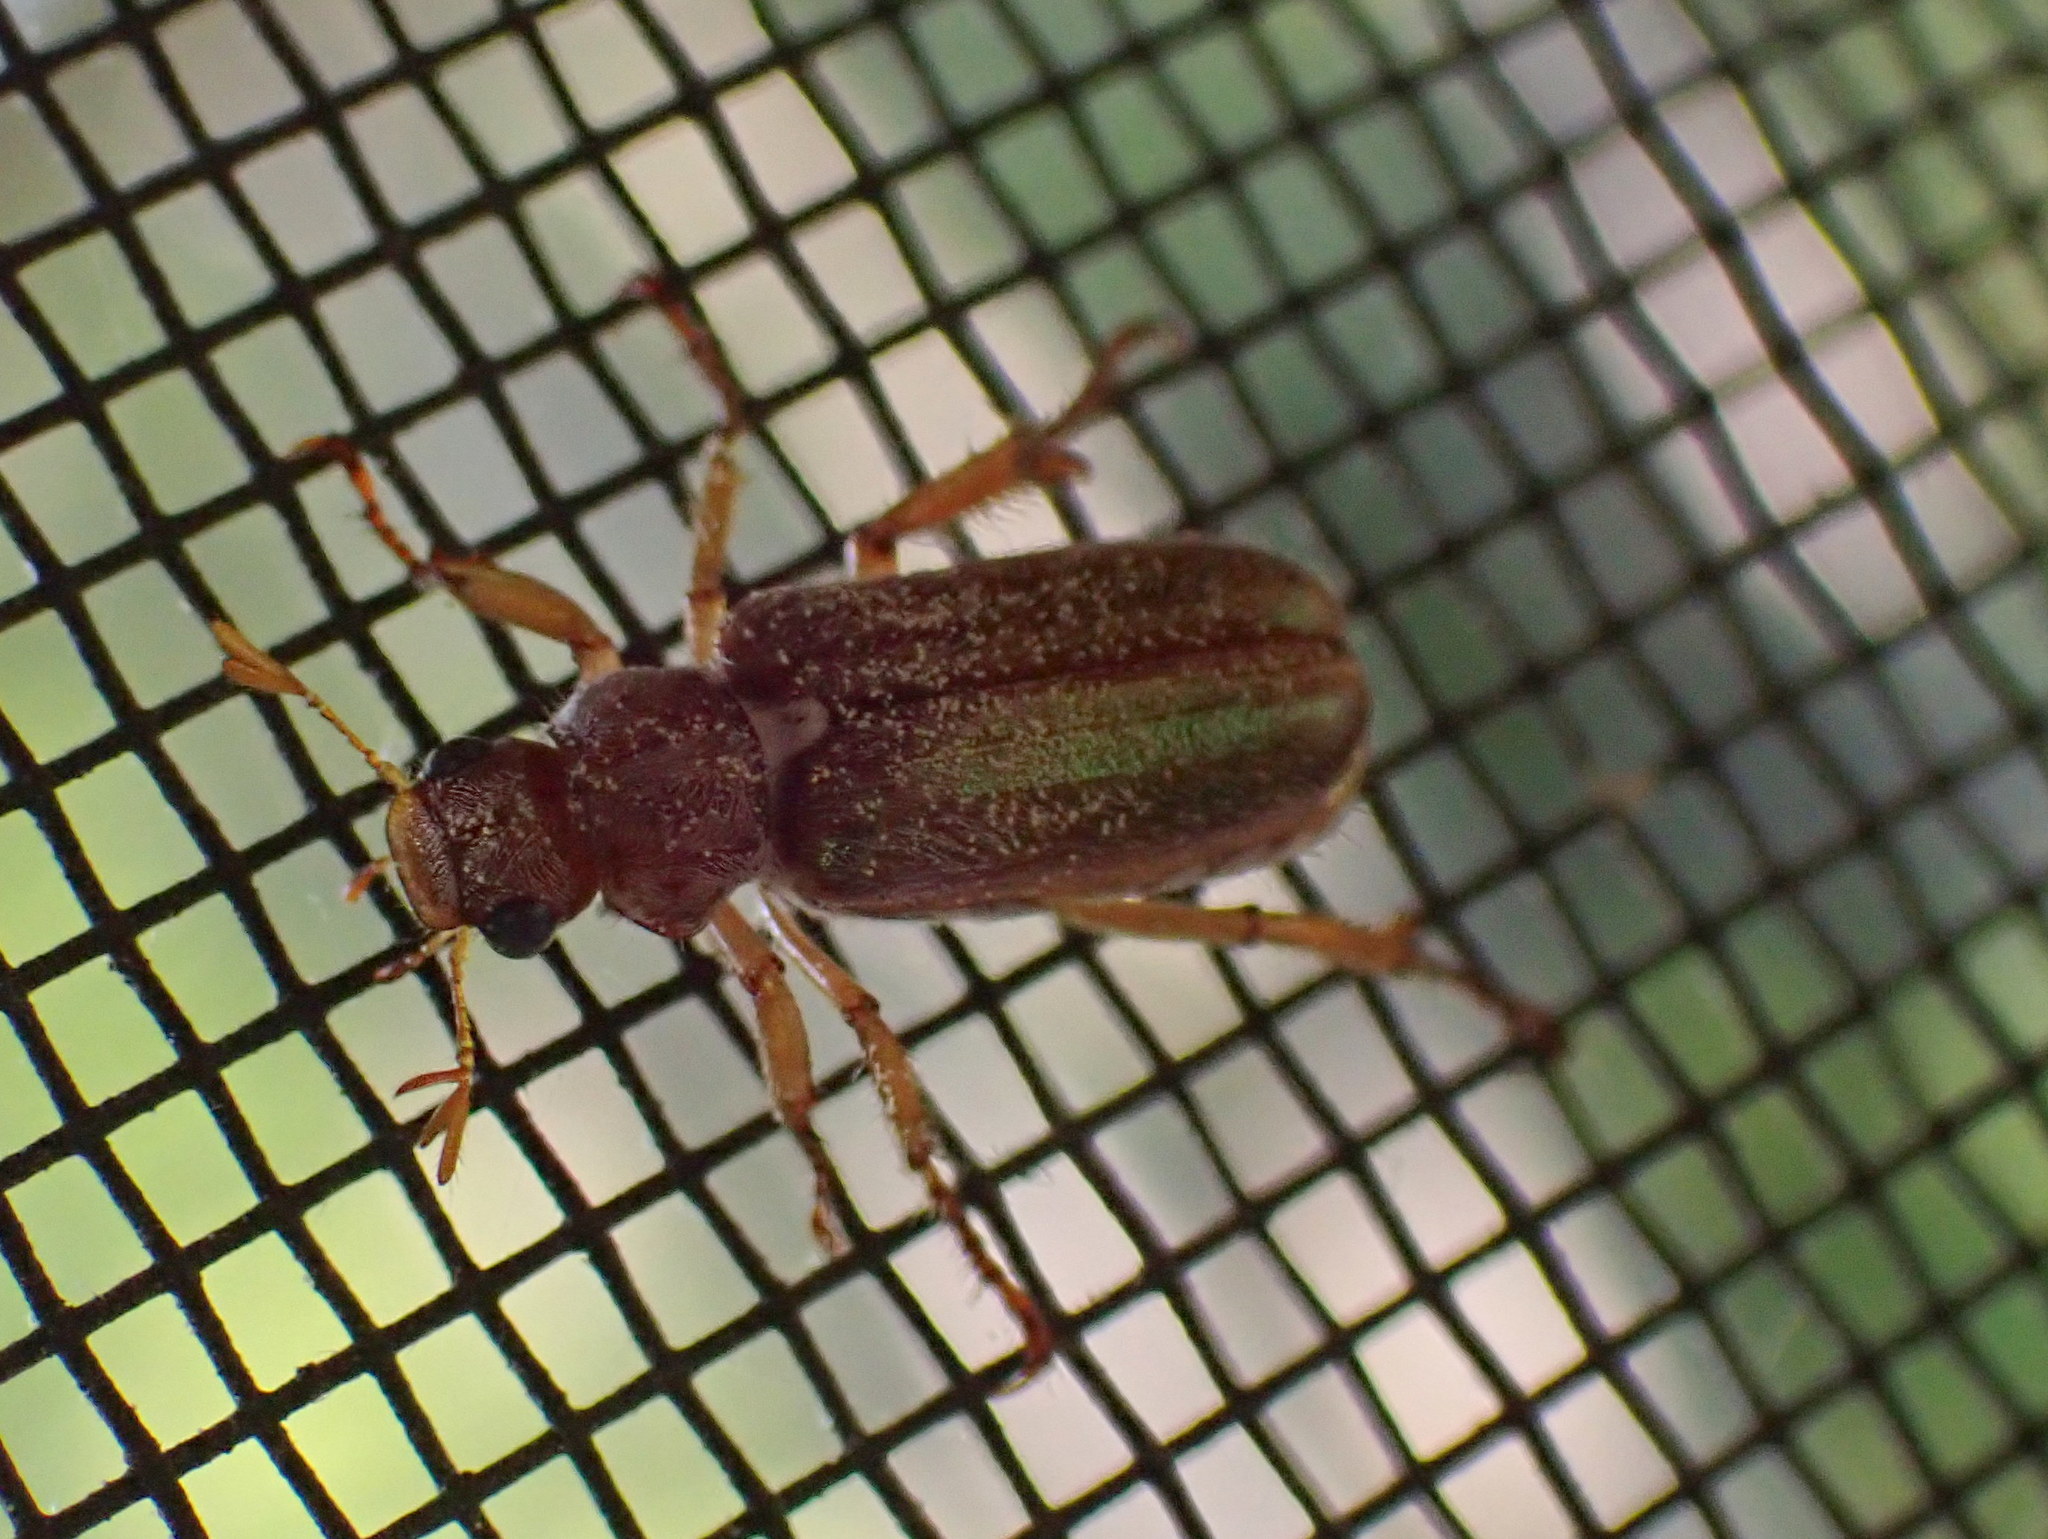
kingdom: Animalia
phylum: Arthropoda
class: Insecta
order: Coleoptera
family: Scarabaeidae
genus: Dichelonyx
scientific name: Dichelonyx albicollis
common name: White-necked pine-beetle
